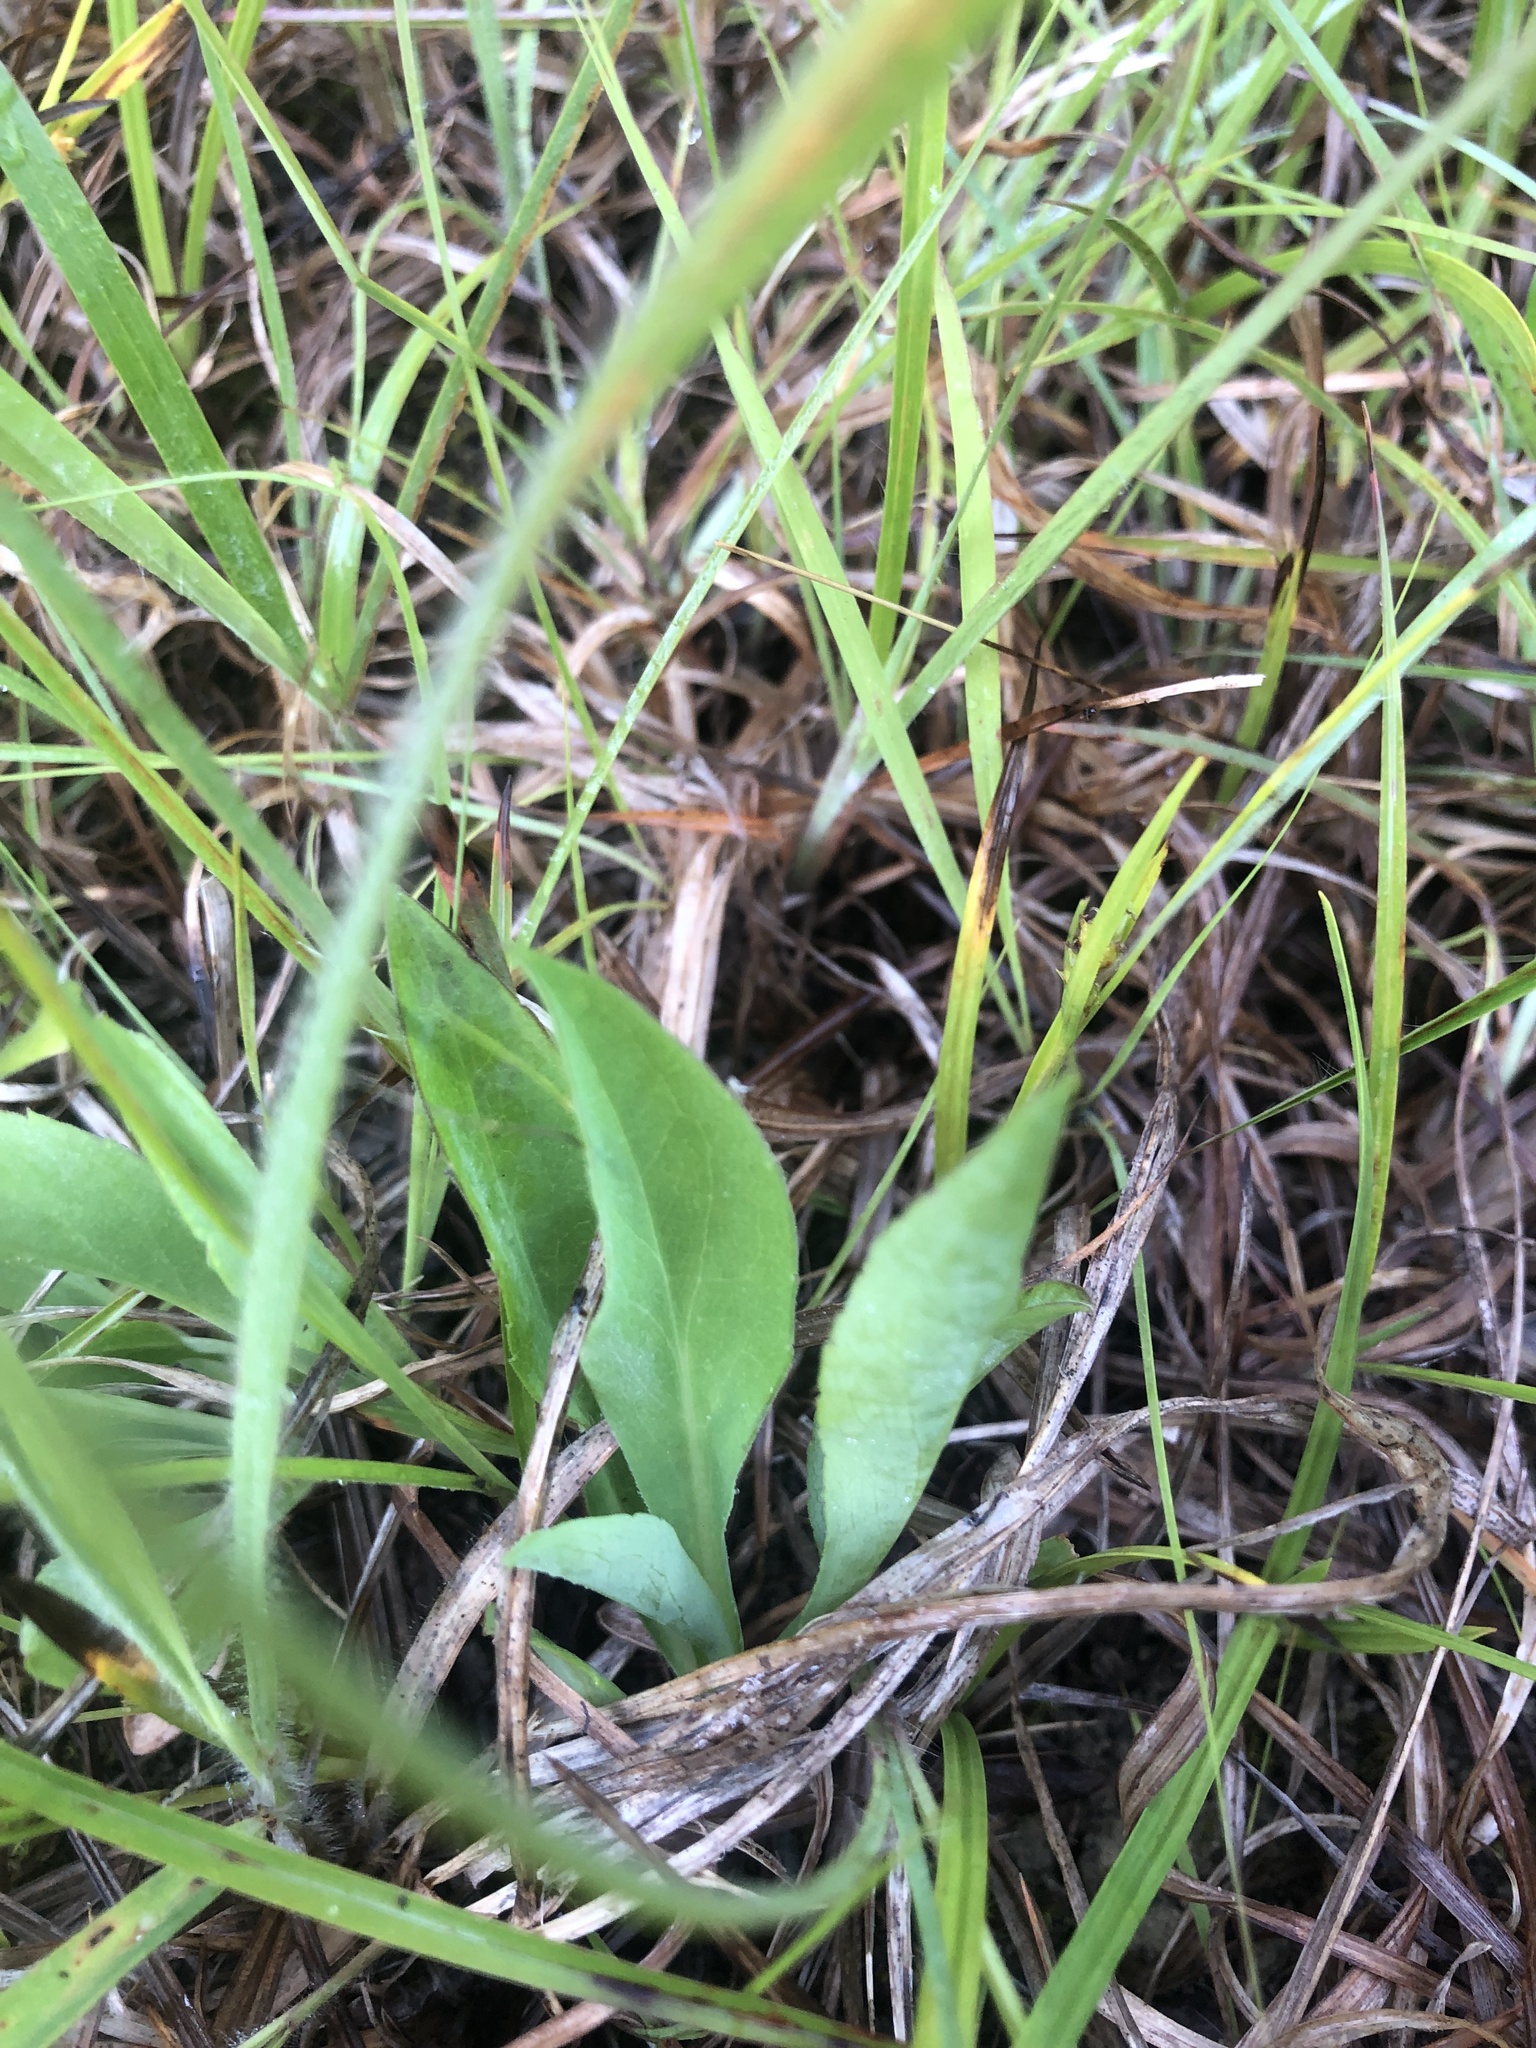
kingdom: Plantae
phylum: Tracheophyta
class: Magnoliopsida
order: Asterales
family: Asteraceae
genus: Symphyotrichum
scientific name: Symphyotrichum laeve
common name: Glaucous aster
